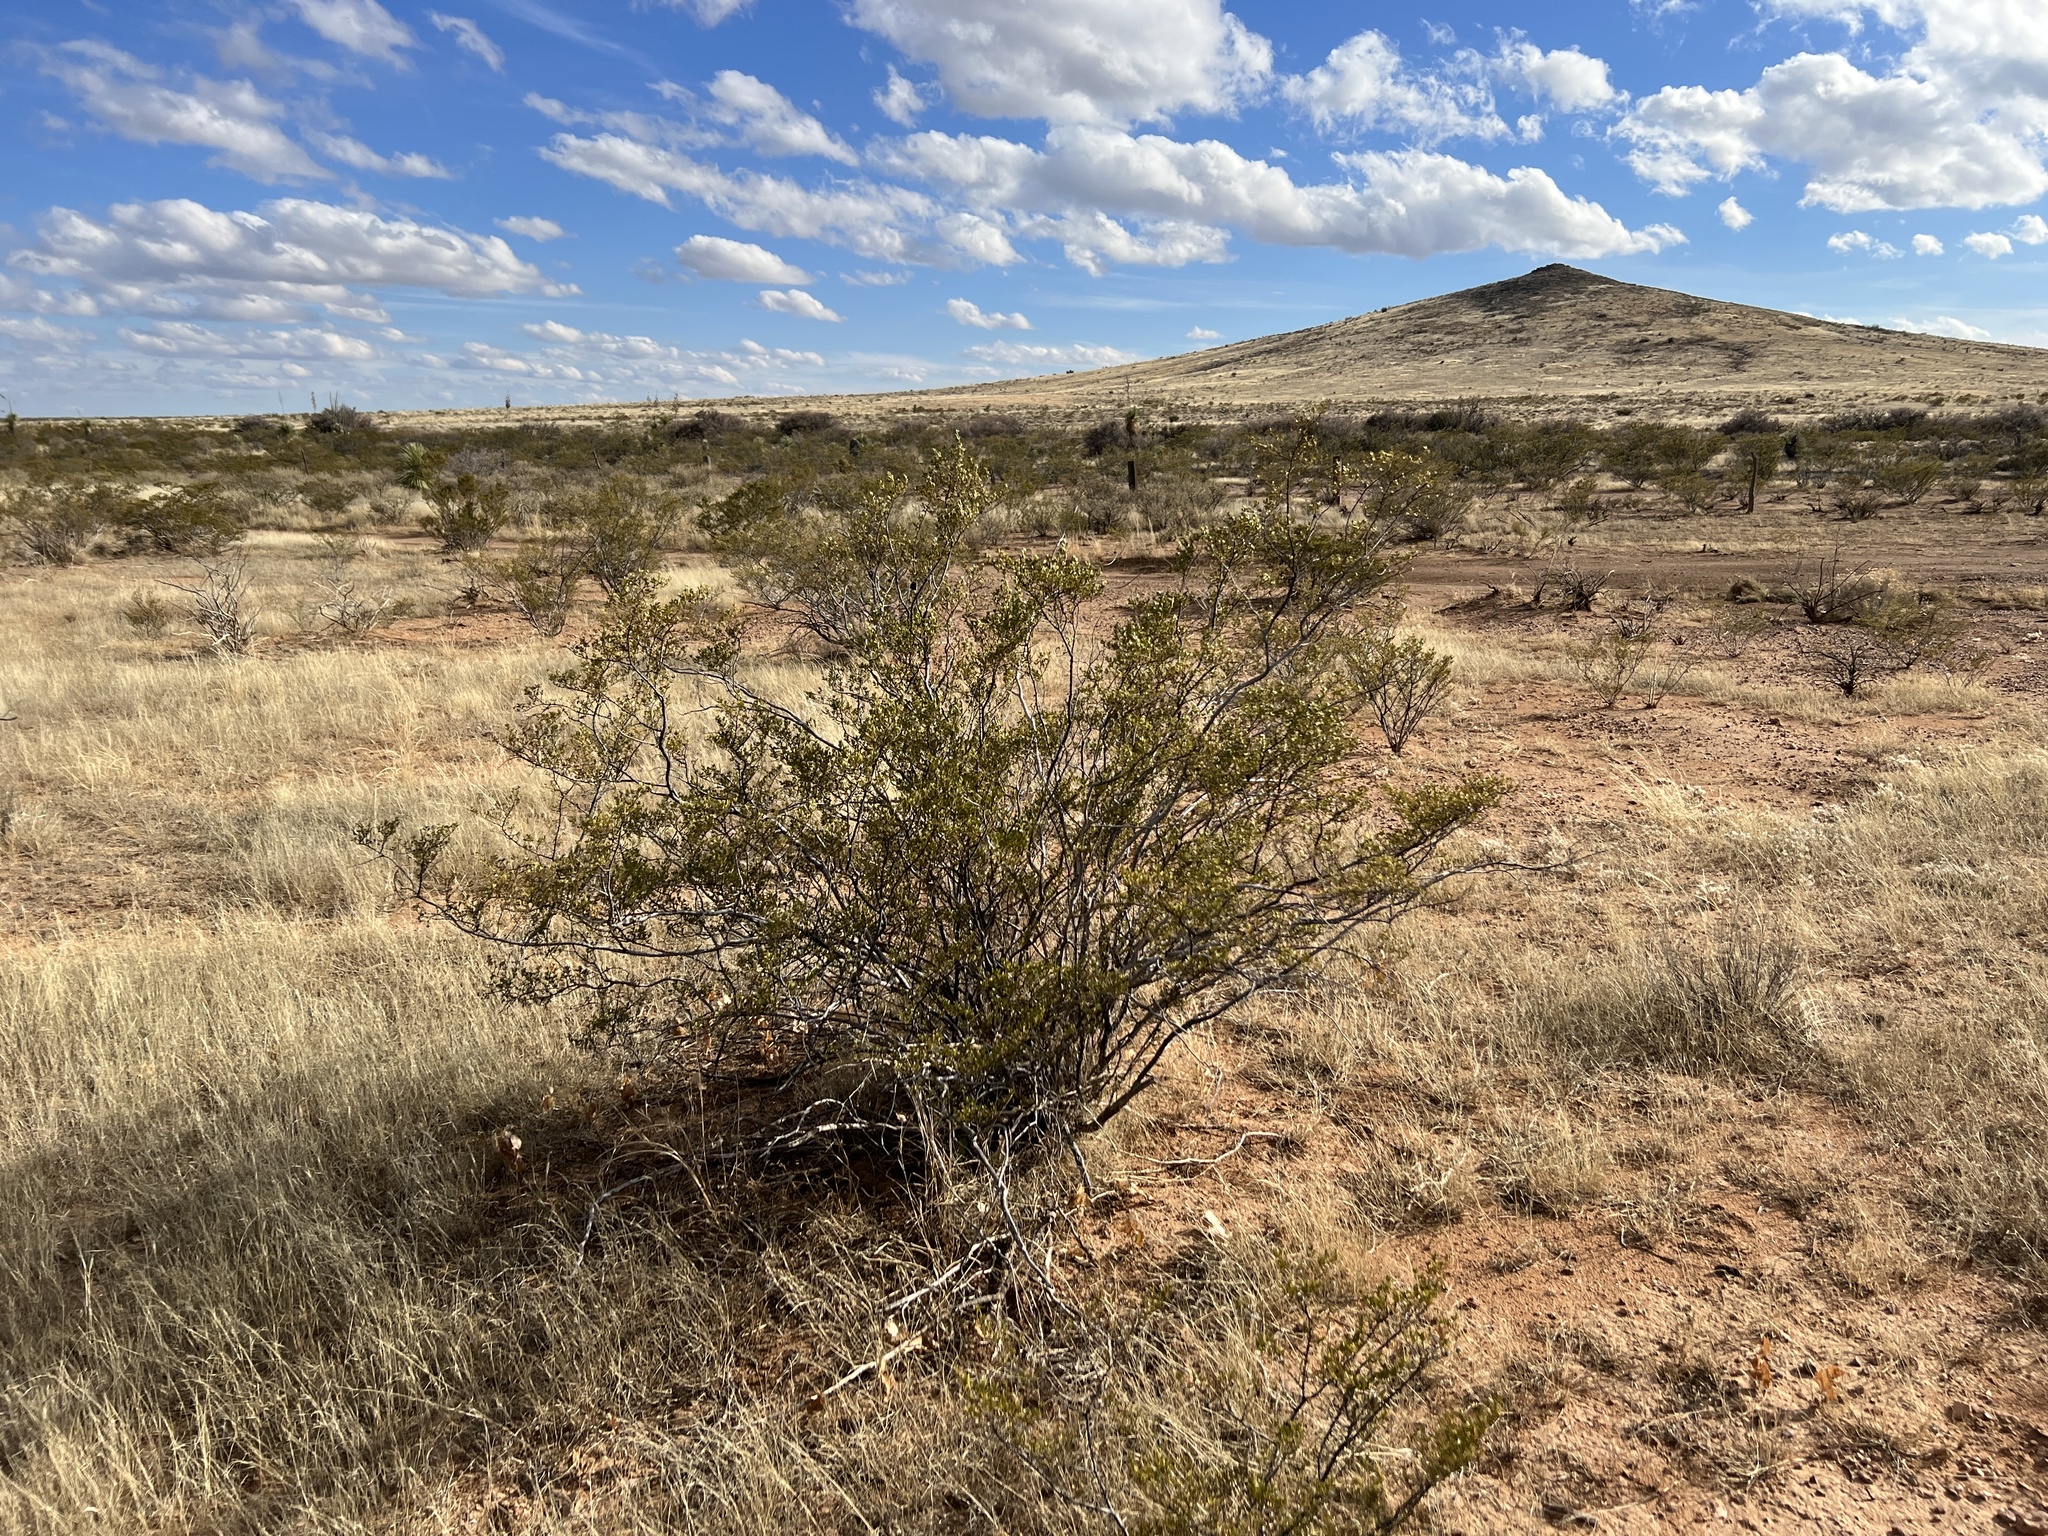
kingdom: Plantae
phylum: Tracheophyta
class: Magnoliopsida
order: Zygophyllales
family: Zygophyllaceae
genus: Larrea
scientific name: Larrea tridentata
